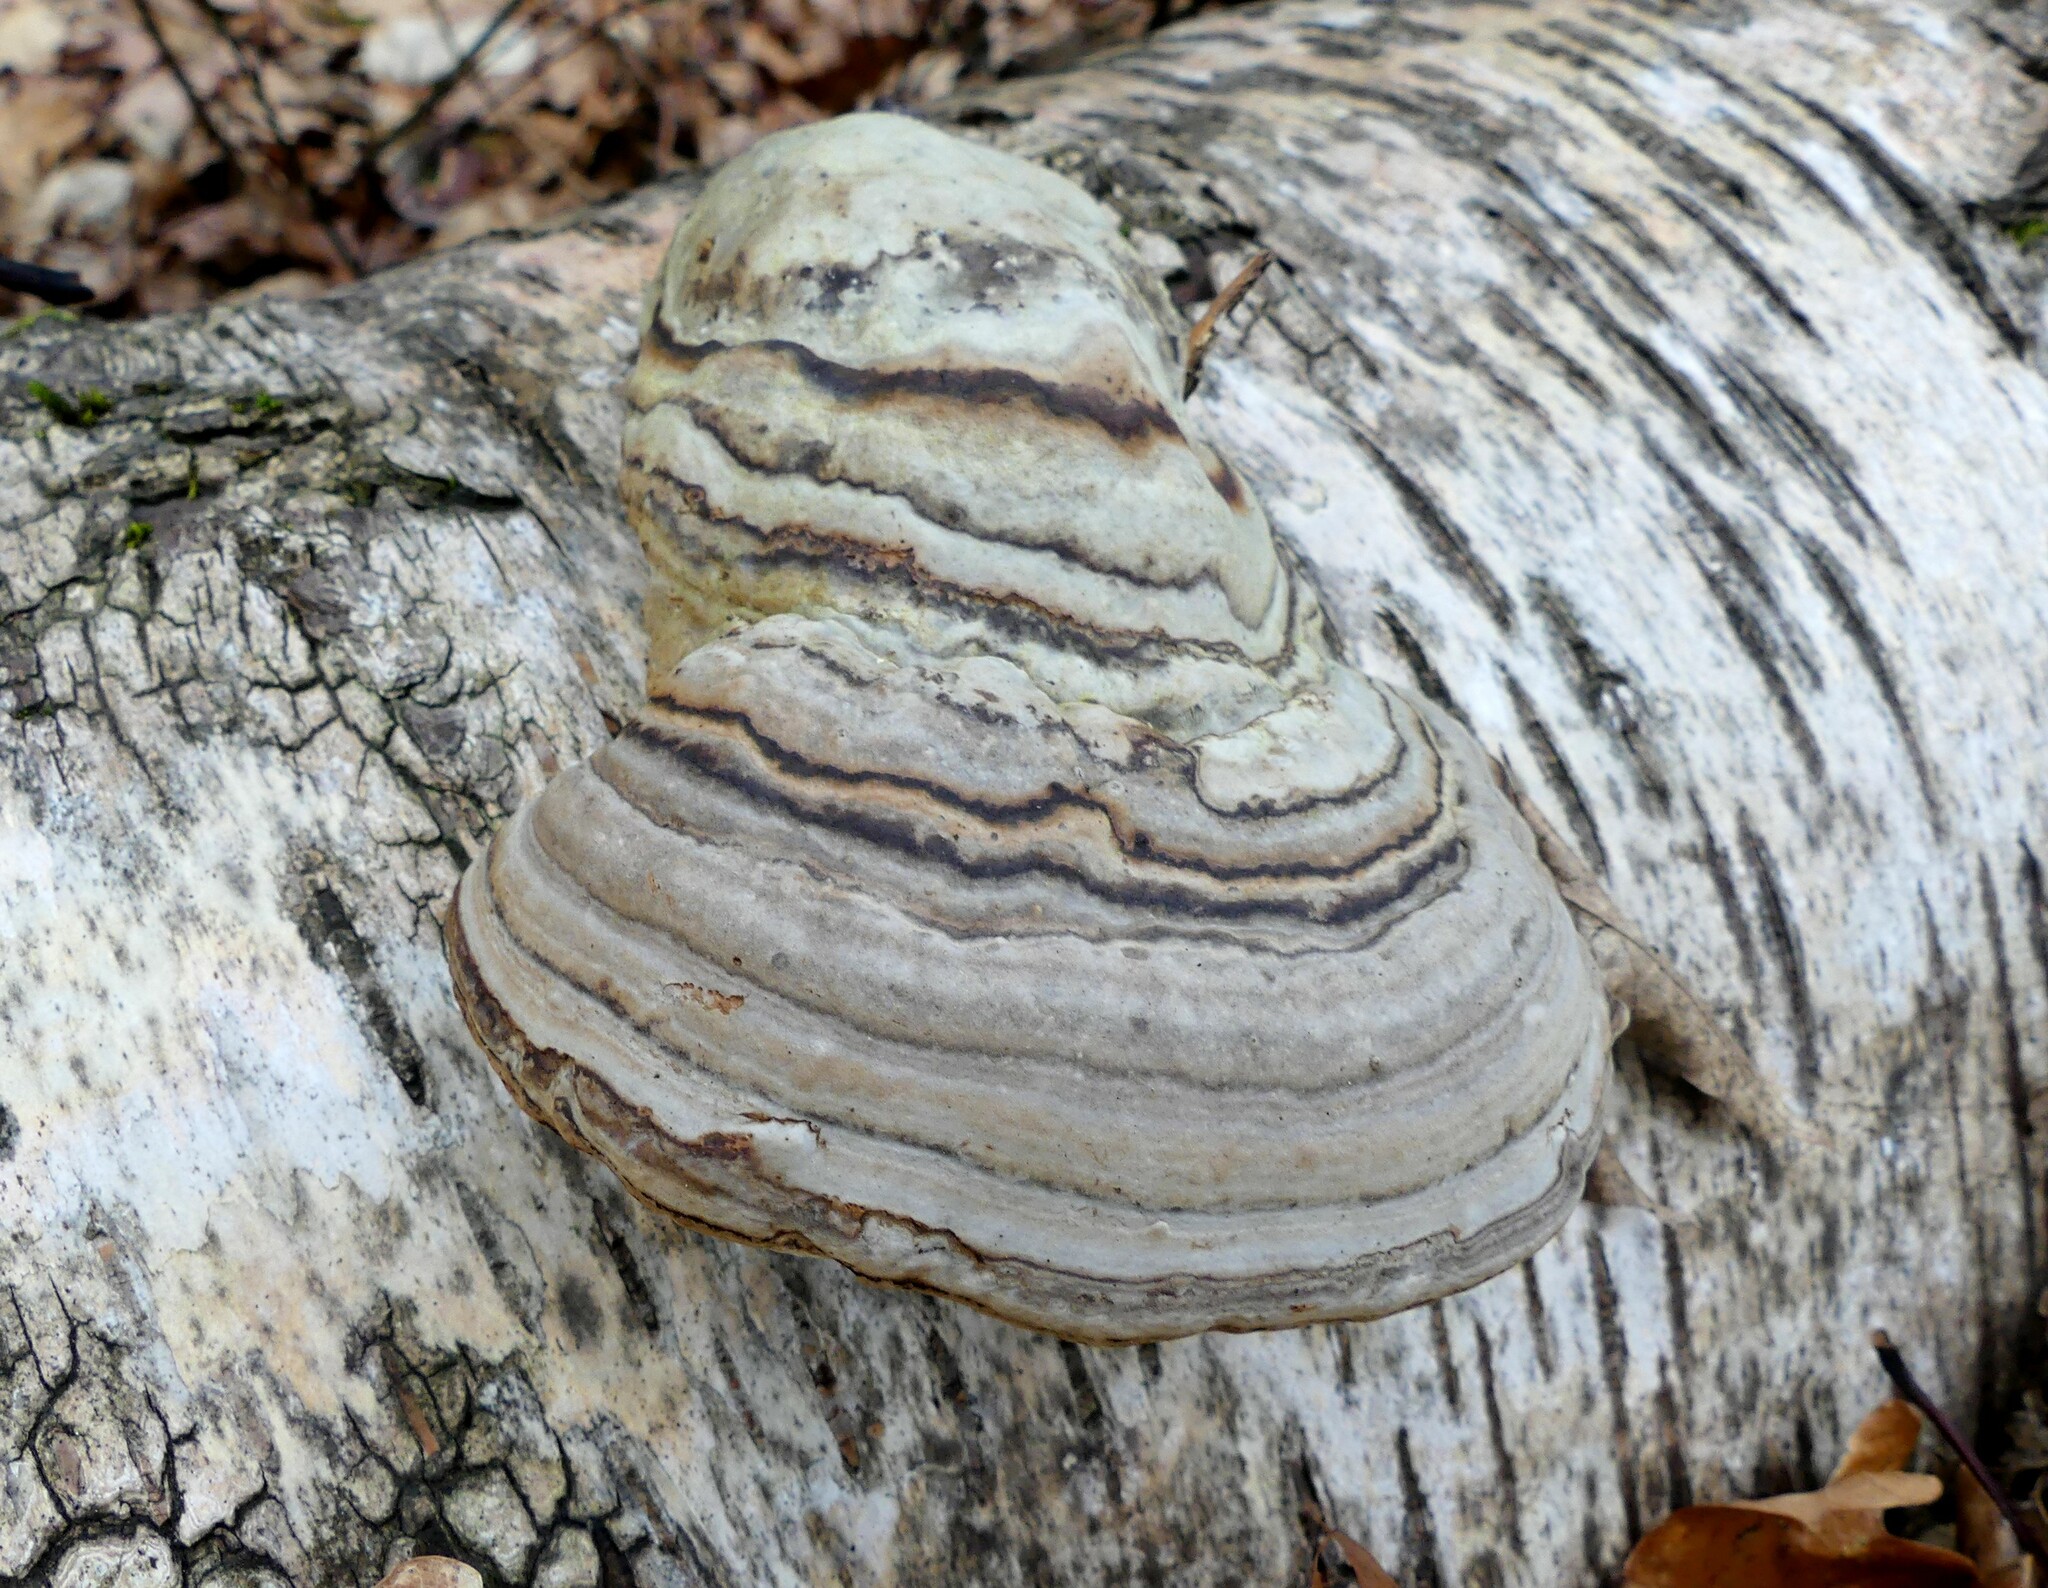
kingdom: Fungi
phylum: Basidiomycota
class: Agaricomycetes
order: Polyporales
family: Polyporaceae
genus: Fomes
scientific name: Fomes fomentarius
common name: Hoof fungus
